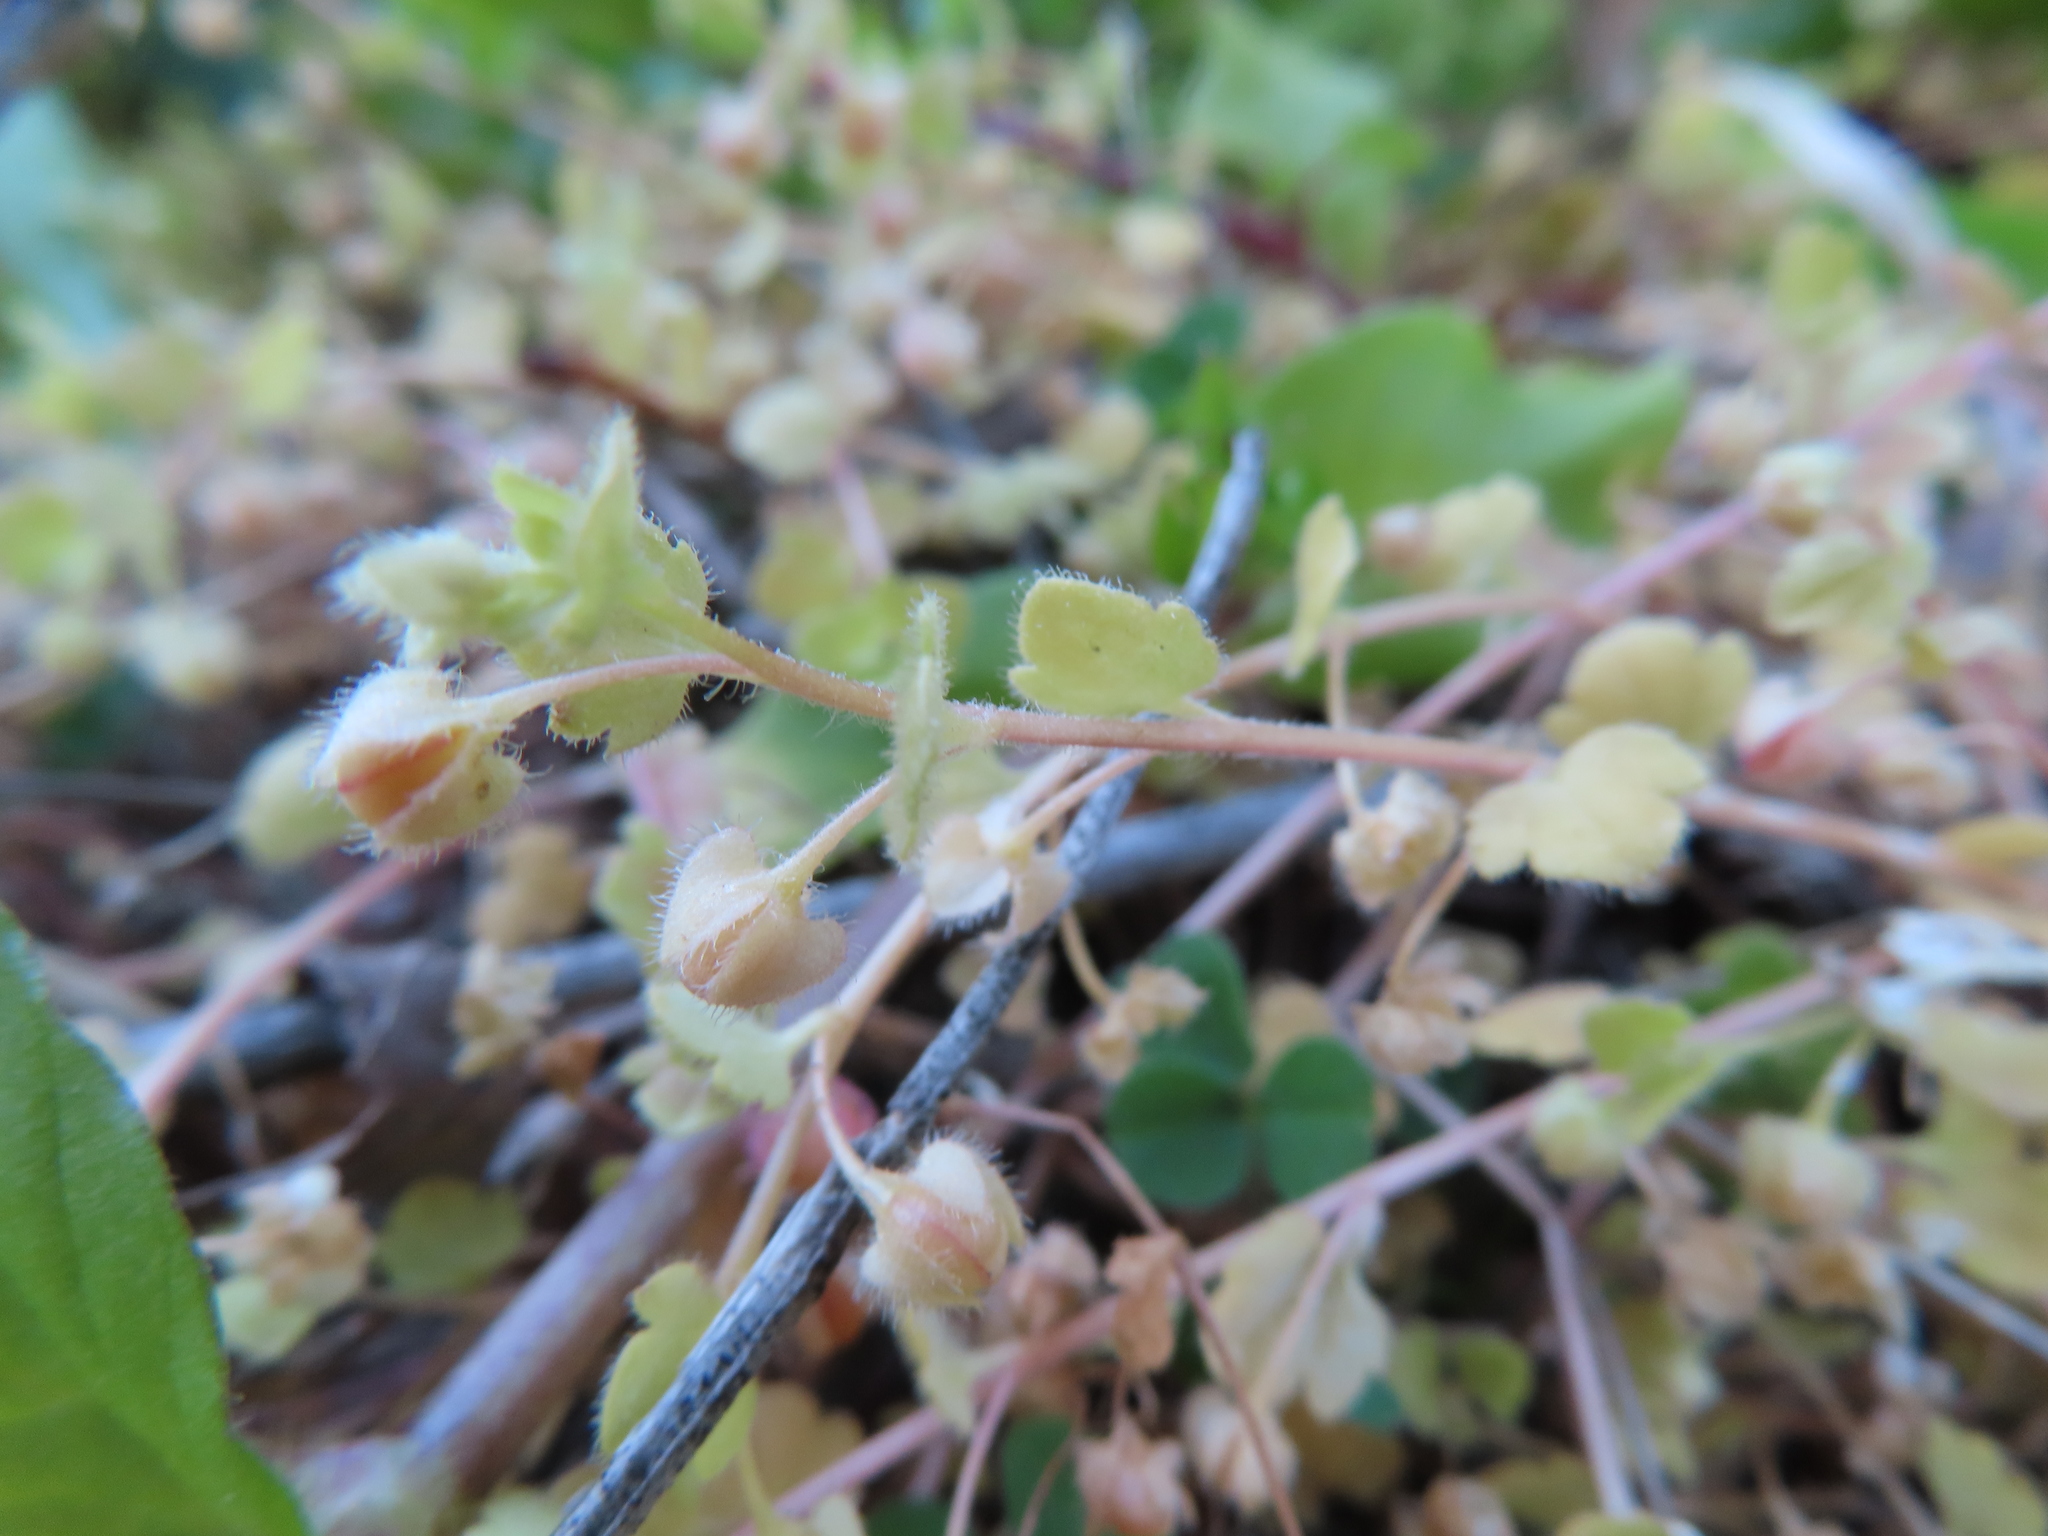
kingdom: Plantae
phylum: Tracheophyta
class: Magnoliopsida
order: Lamiales
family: Plantaginaceae
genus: Veronica
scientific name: Veronica hederifolia
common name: Ivy-leaved speedwell
